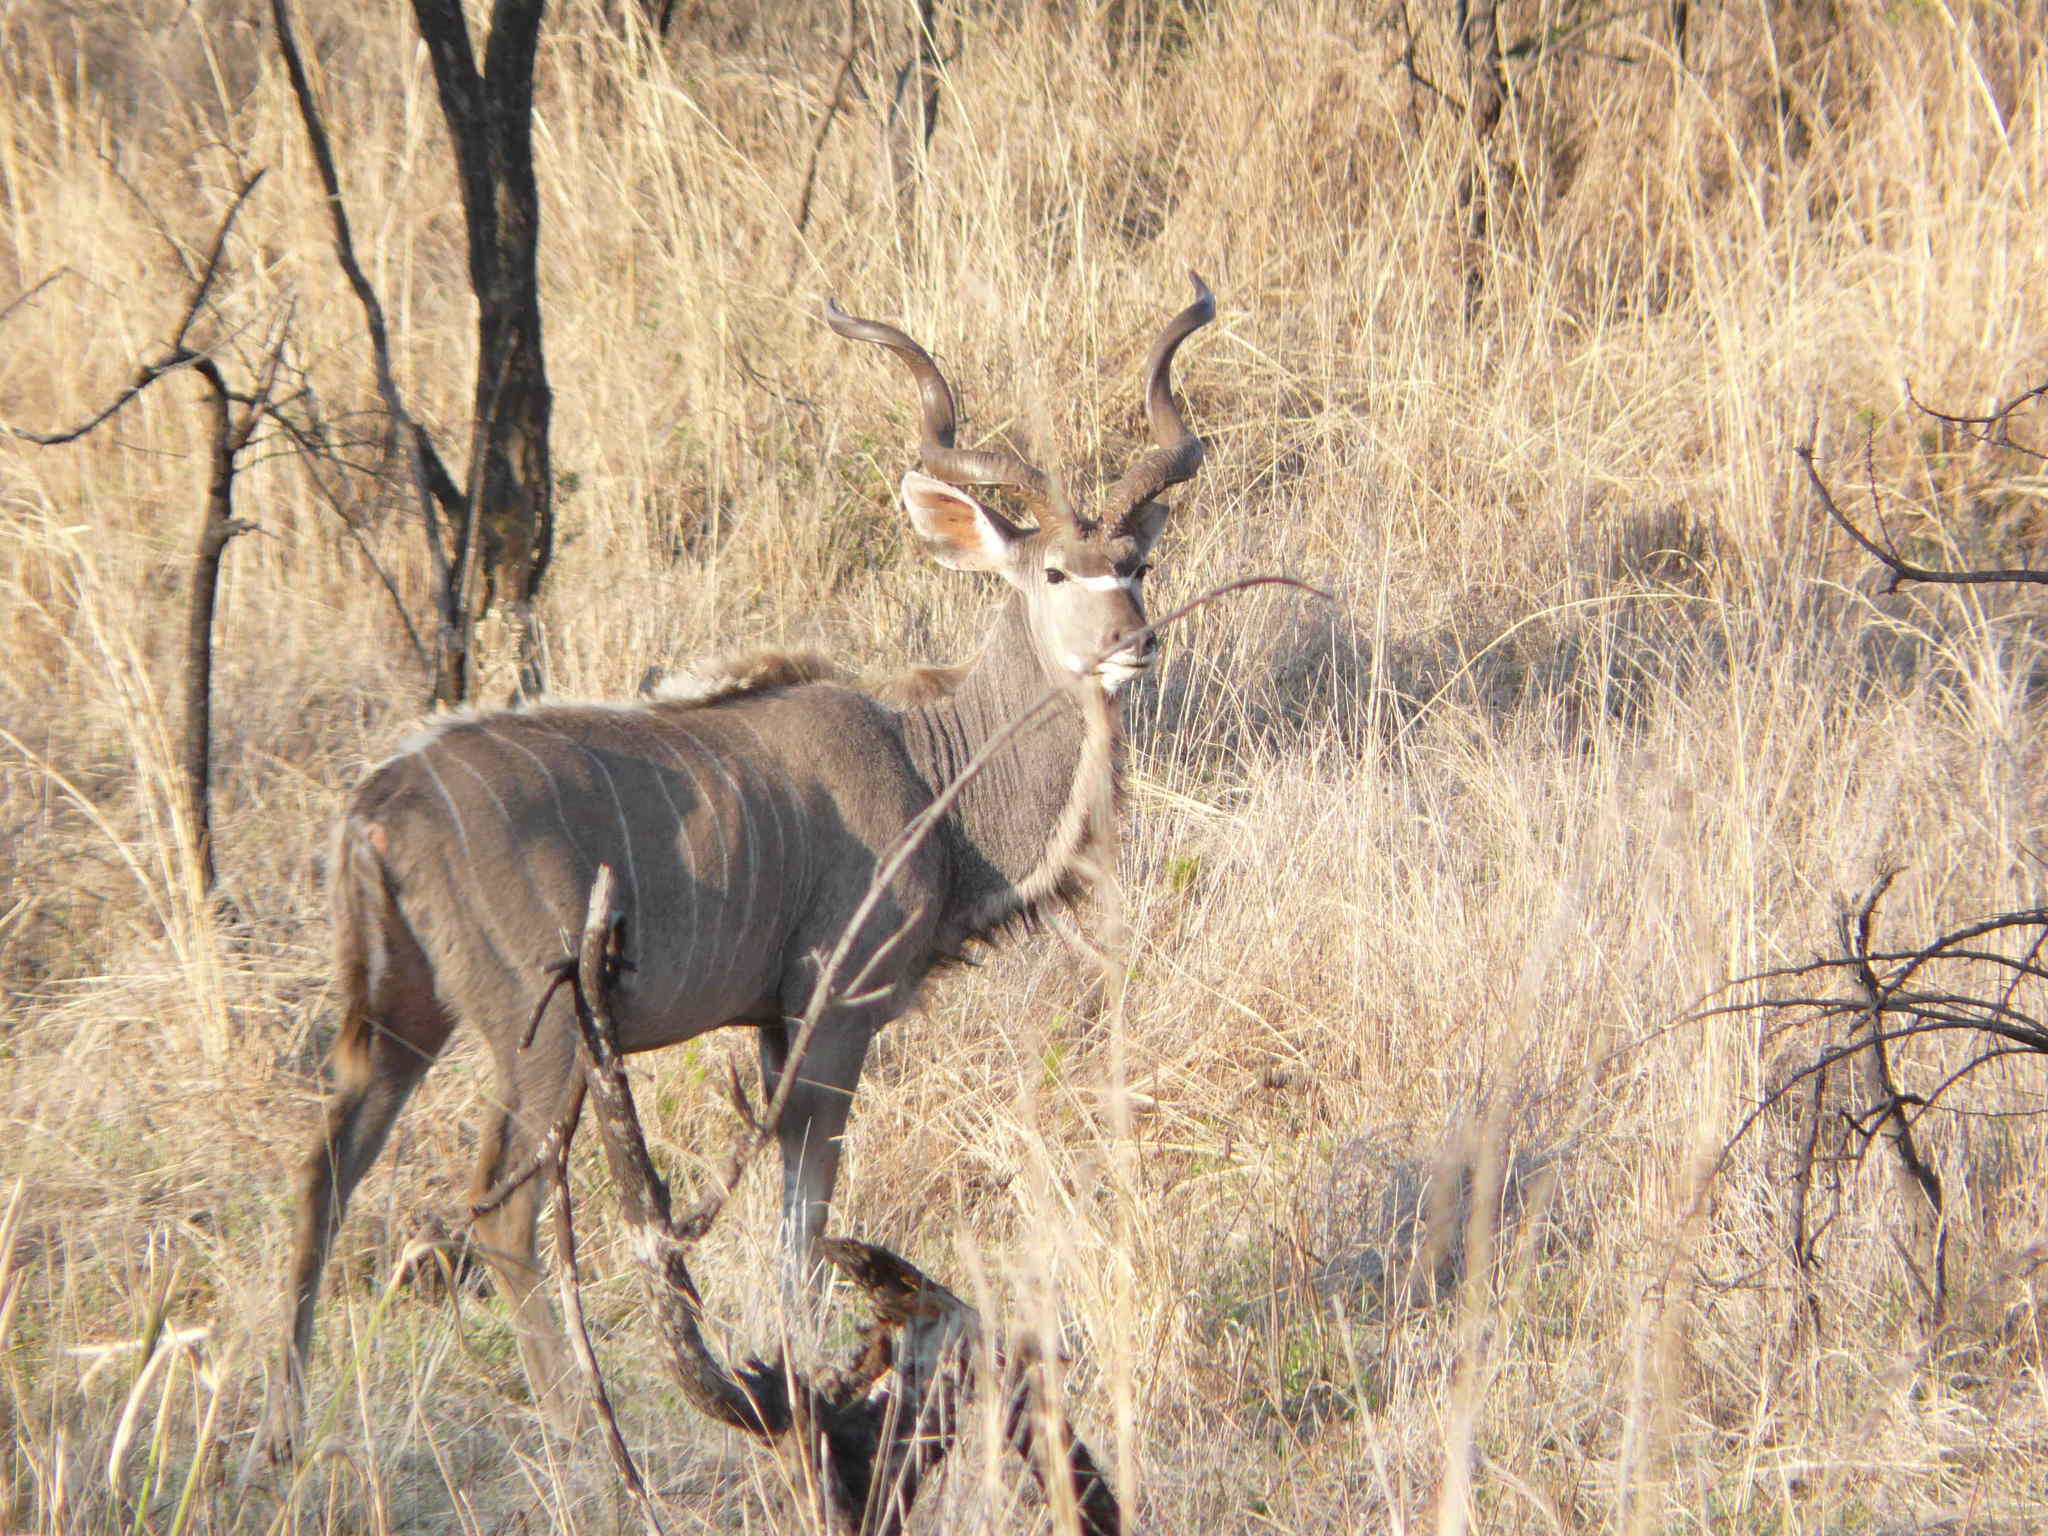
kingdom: Animalia
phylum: Chordata
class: Mammalia
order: Artiodactyla
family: Bovidae
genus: Tragelaphus
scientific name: Tragelaphus strepsiceros
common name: Greater kudu
